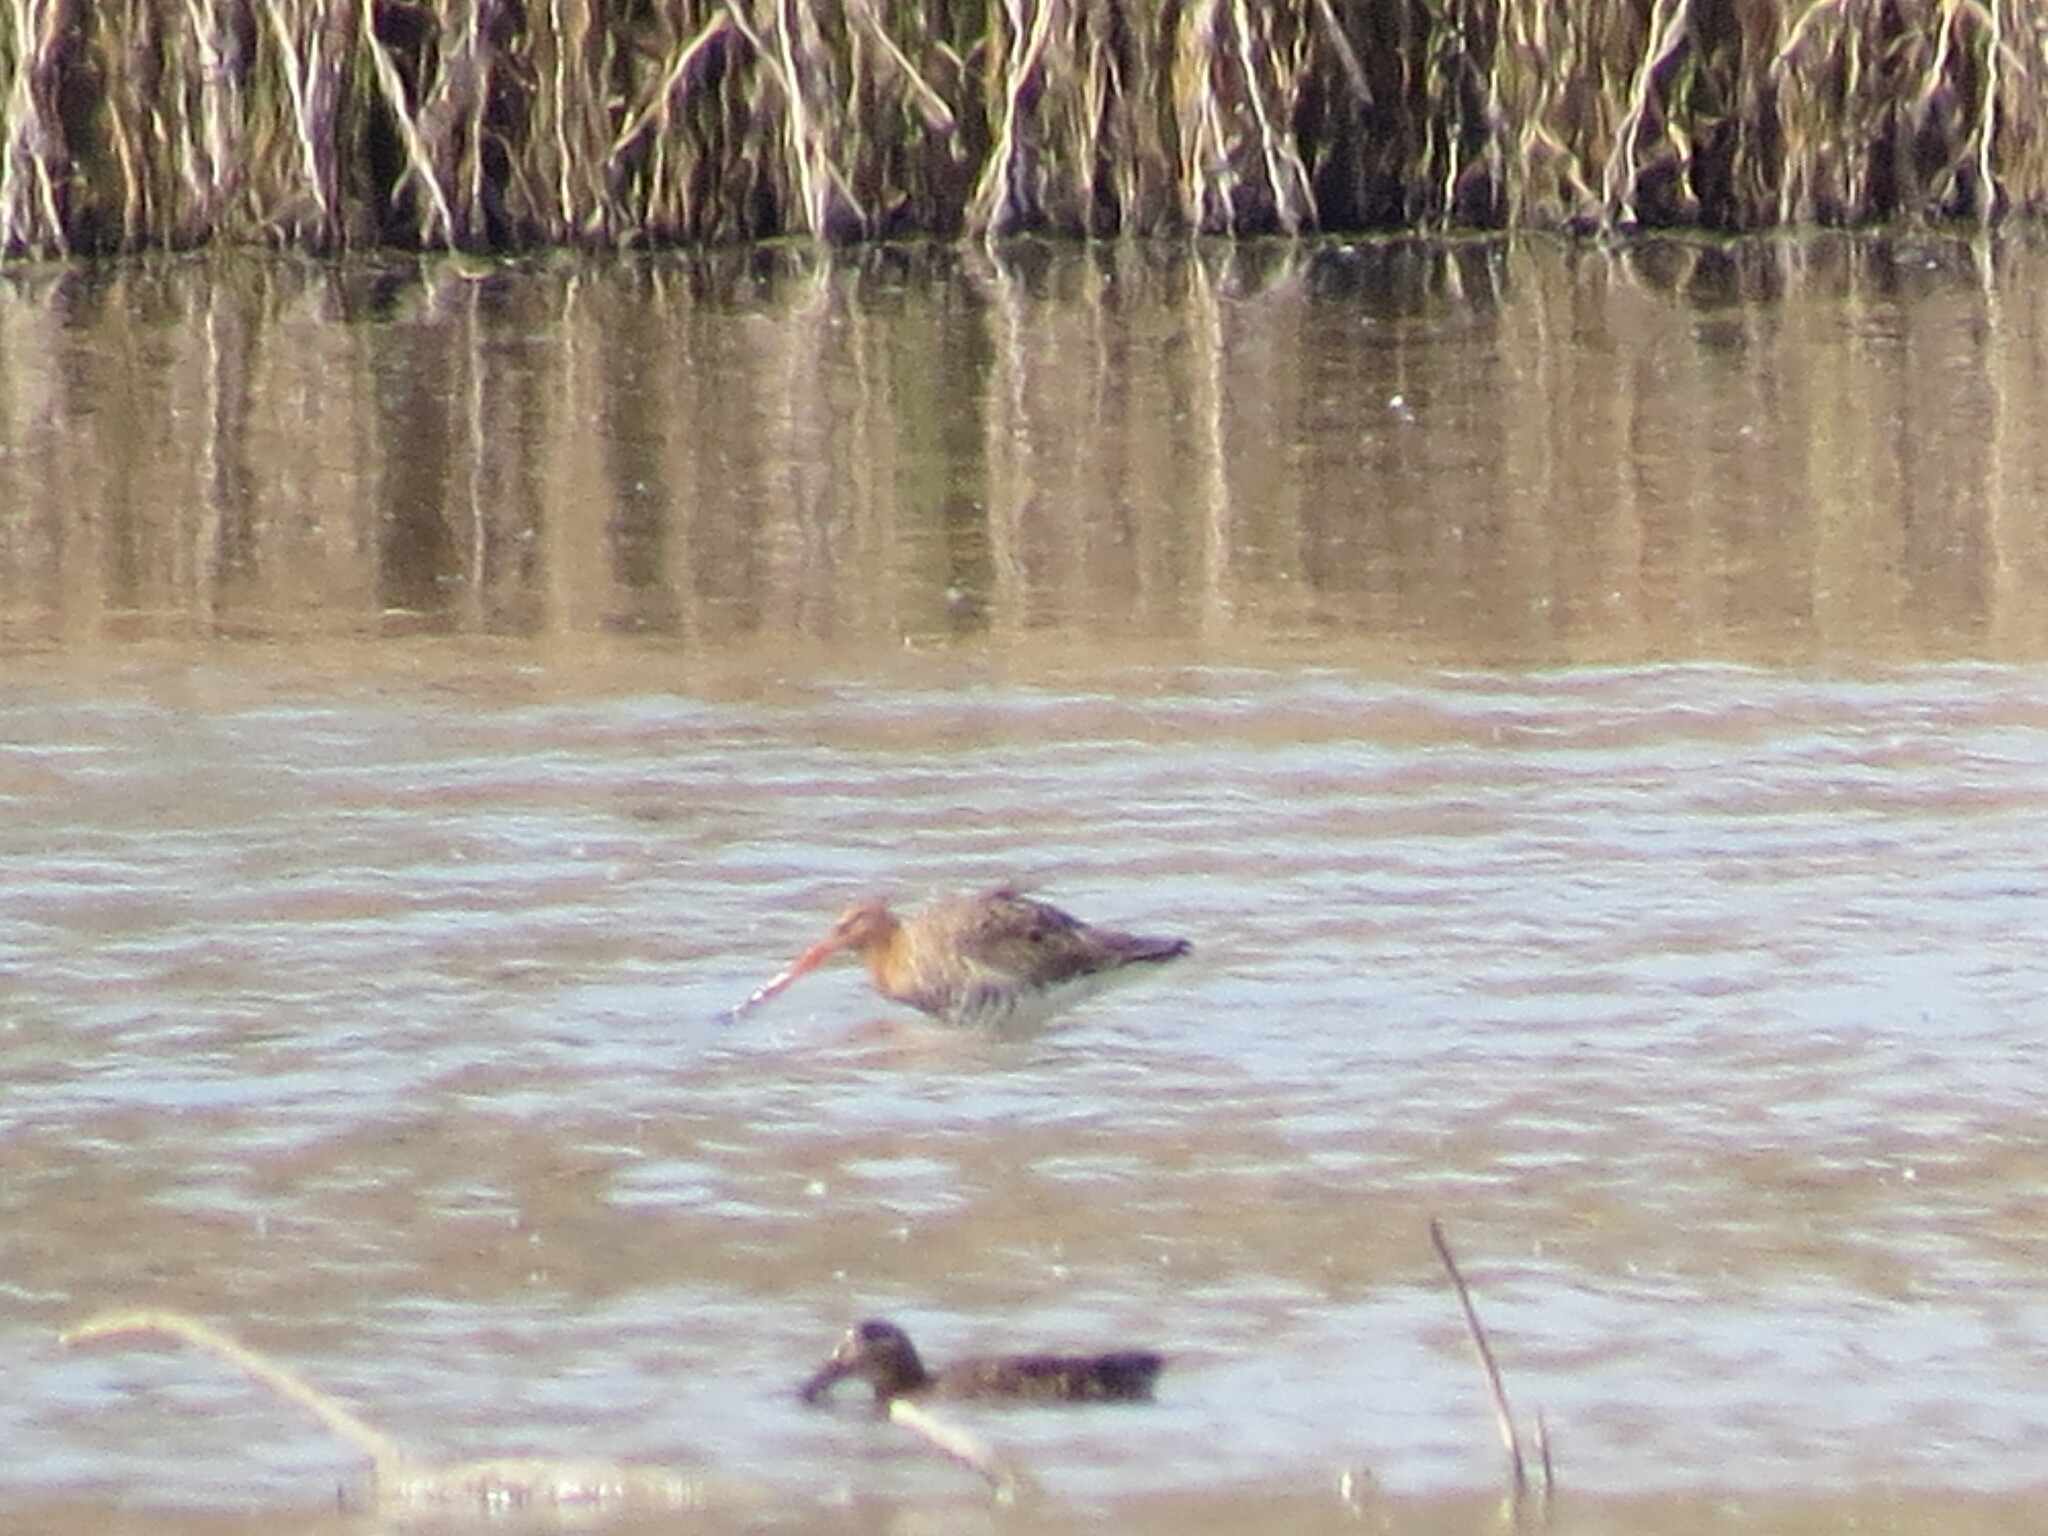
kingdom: Animalia
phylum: Chordata
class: Aves
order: Charadriiformes
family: Scolopacidae
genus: Limosa
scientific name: Limosa limosa
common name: Black-tailed godwit
